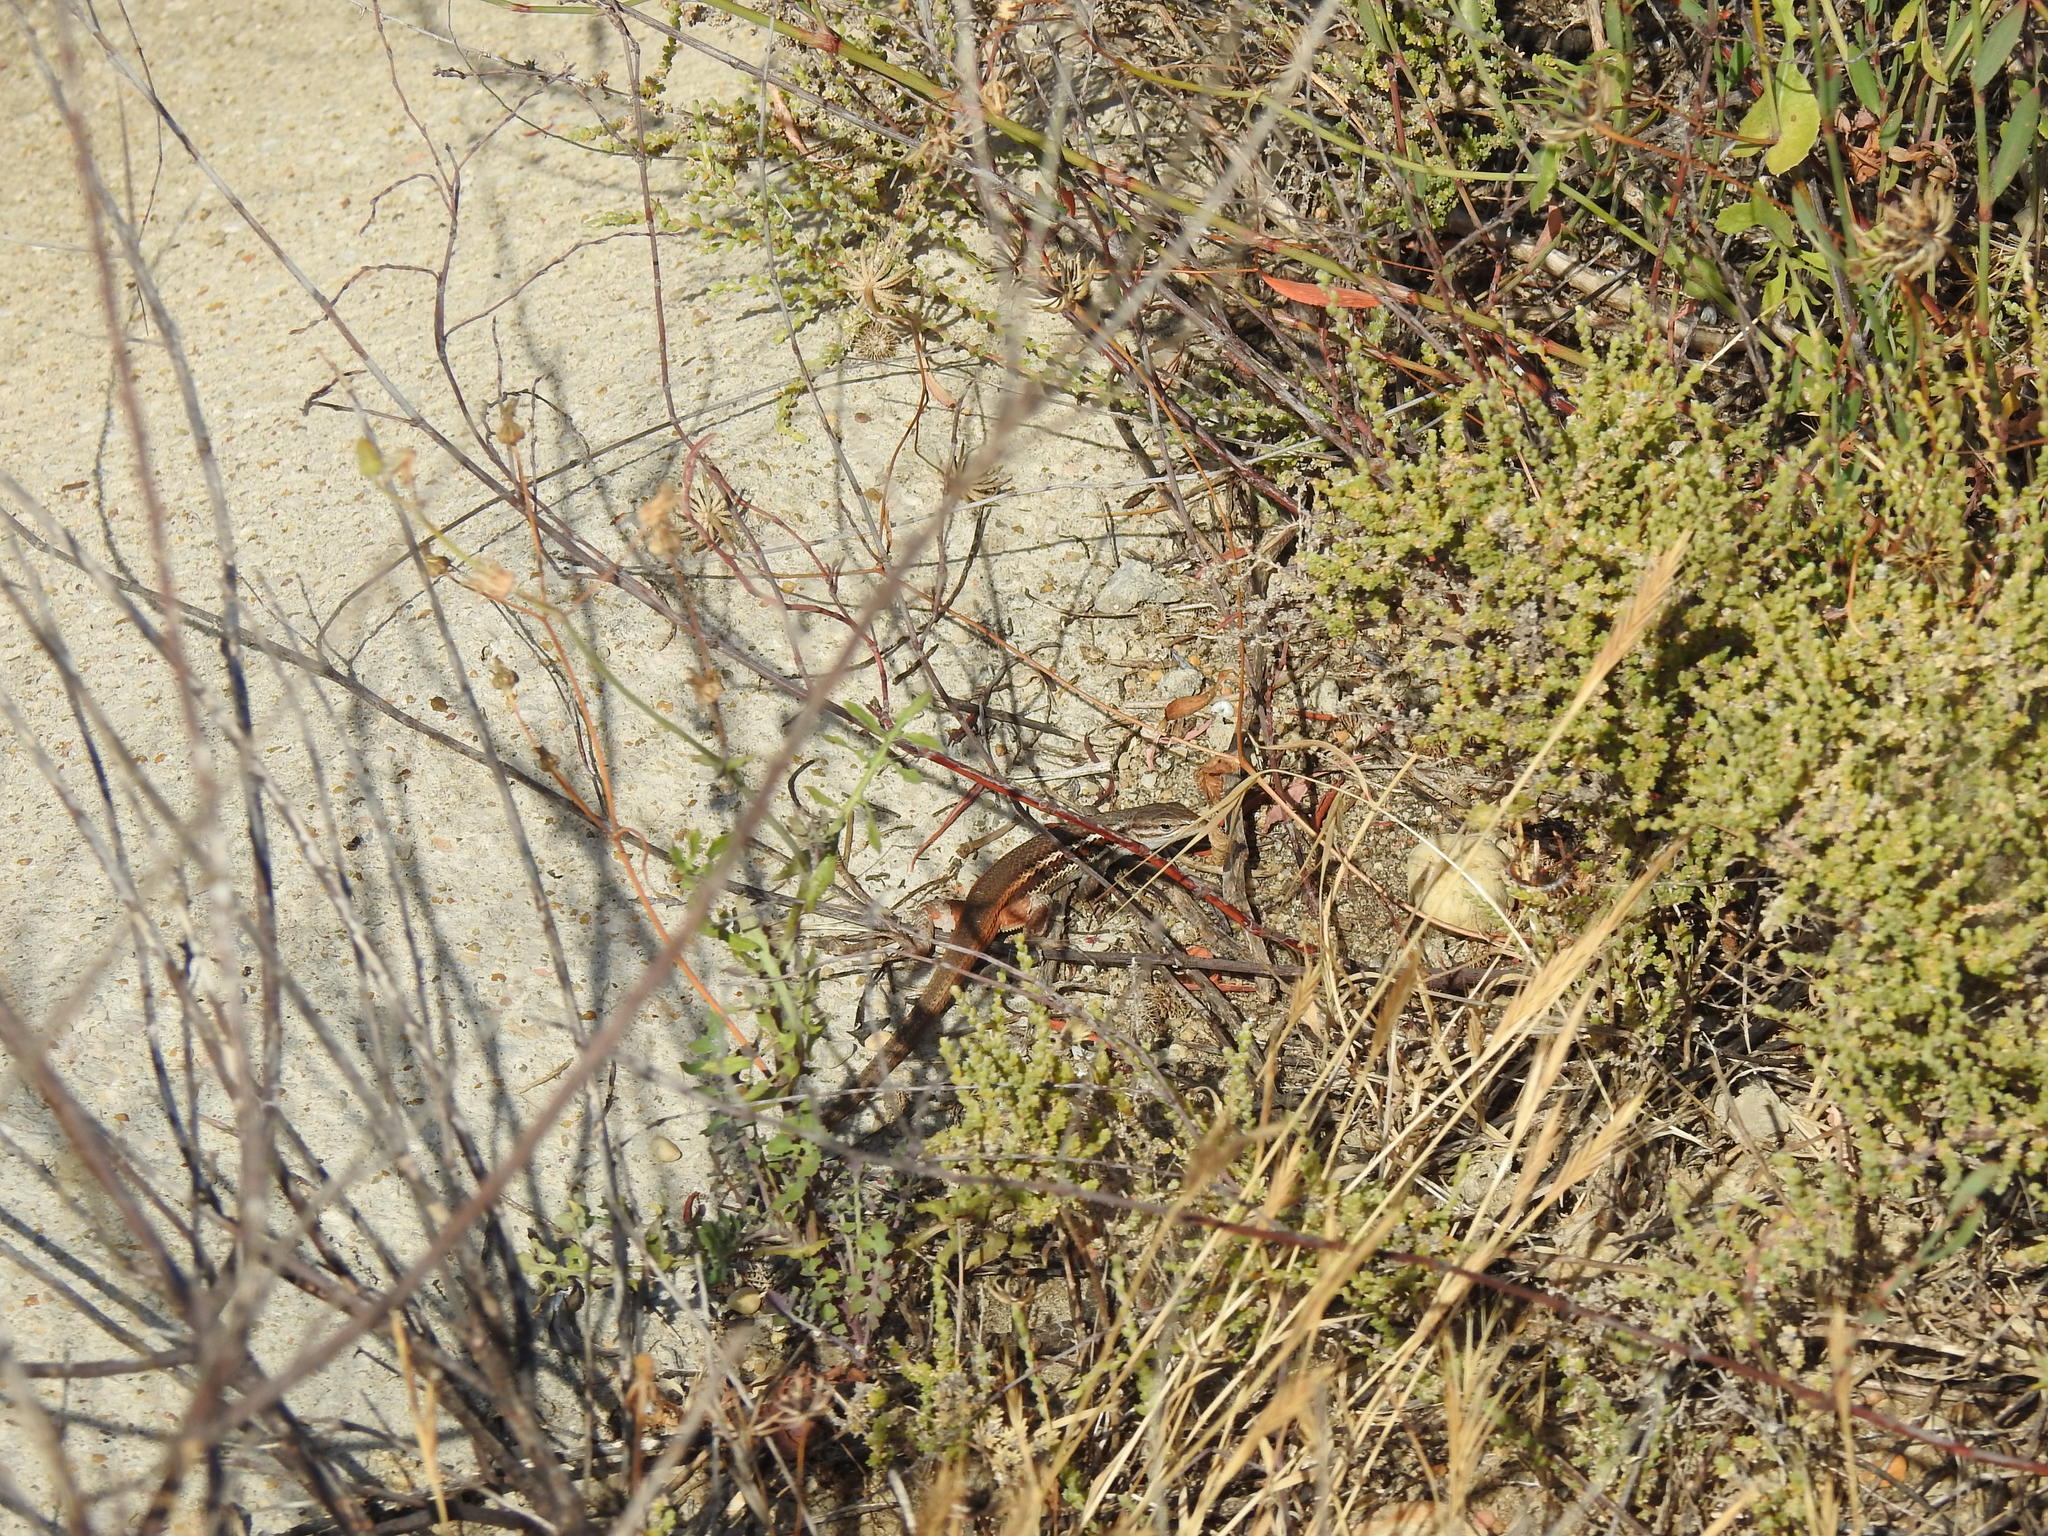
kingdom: Animalia
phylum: Chordata
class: Squamata
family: Lacertidae
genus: Psammodromus
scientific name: Psammodromus algirus
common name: Algerian psammodromus
